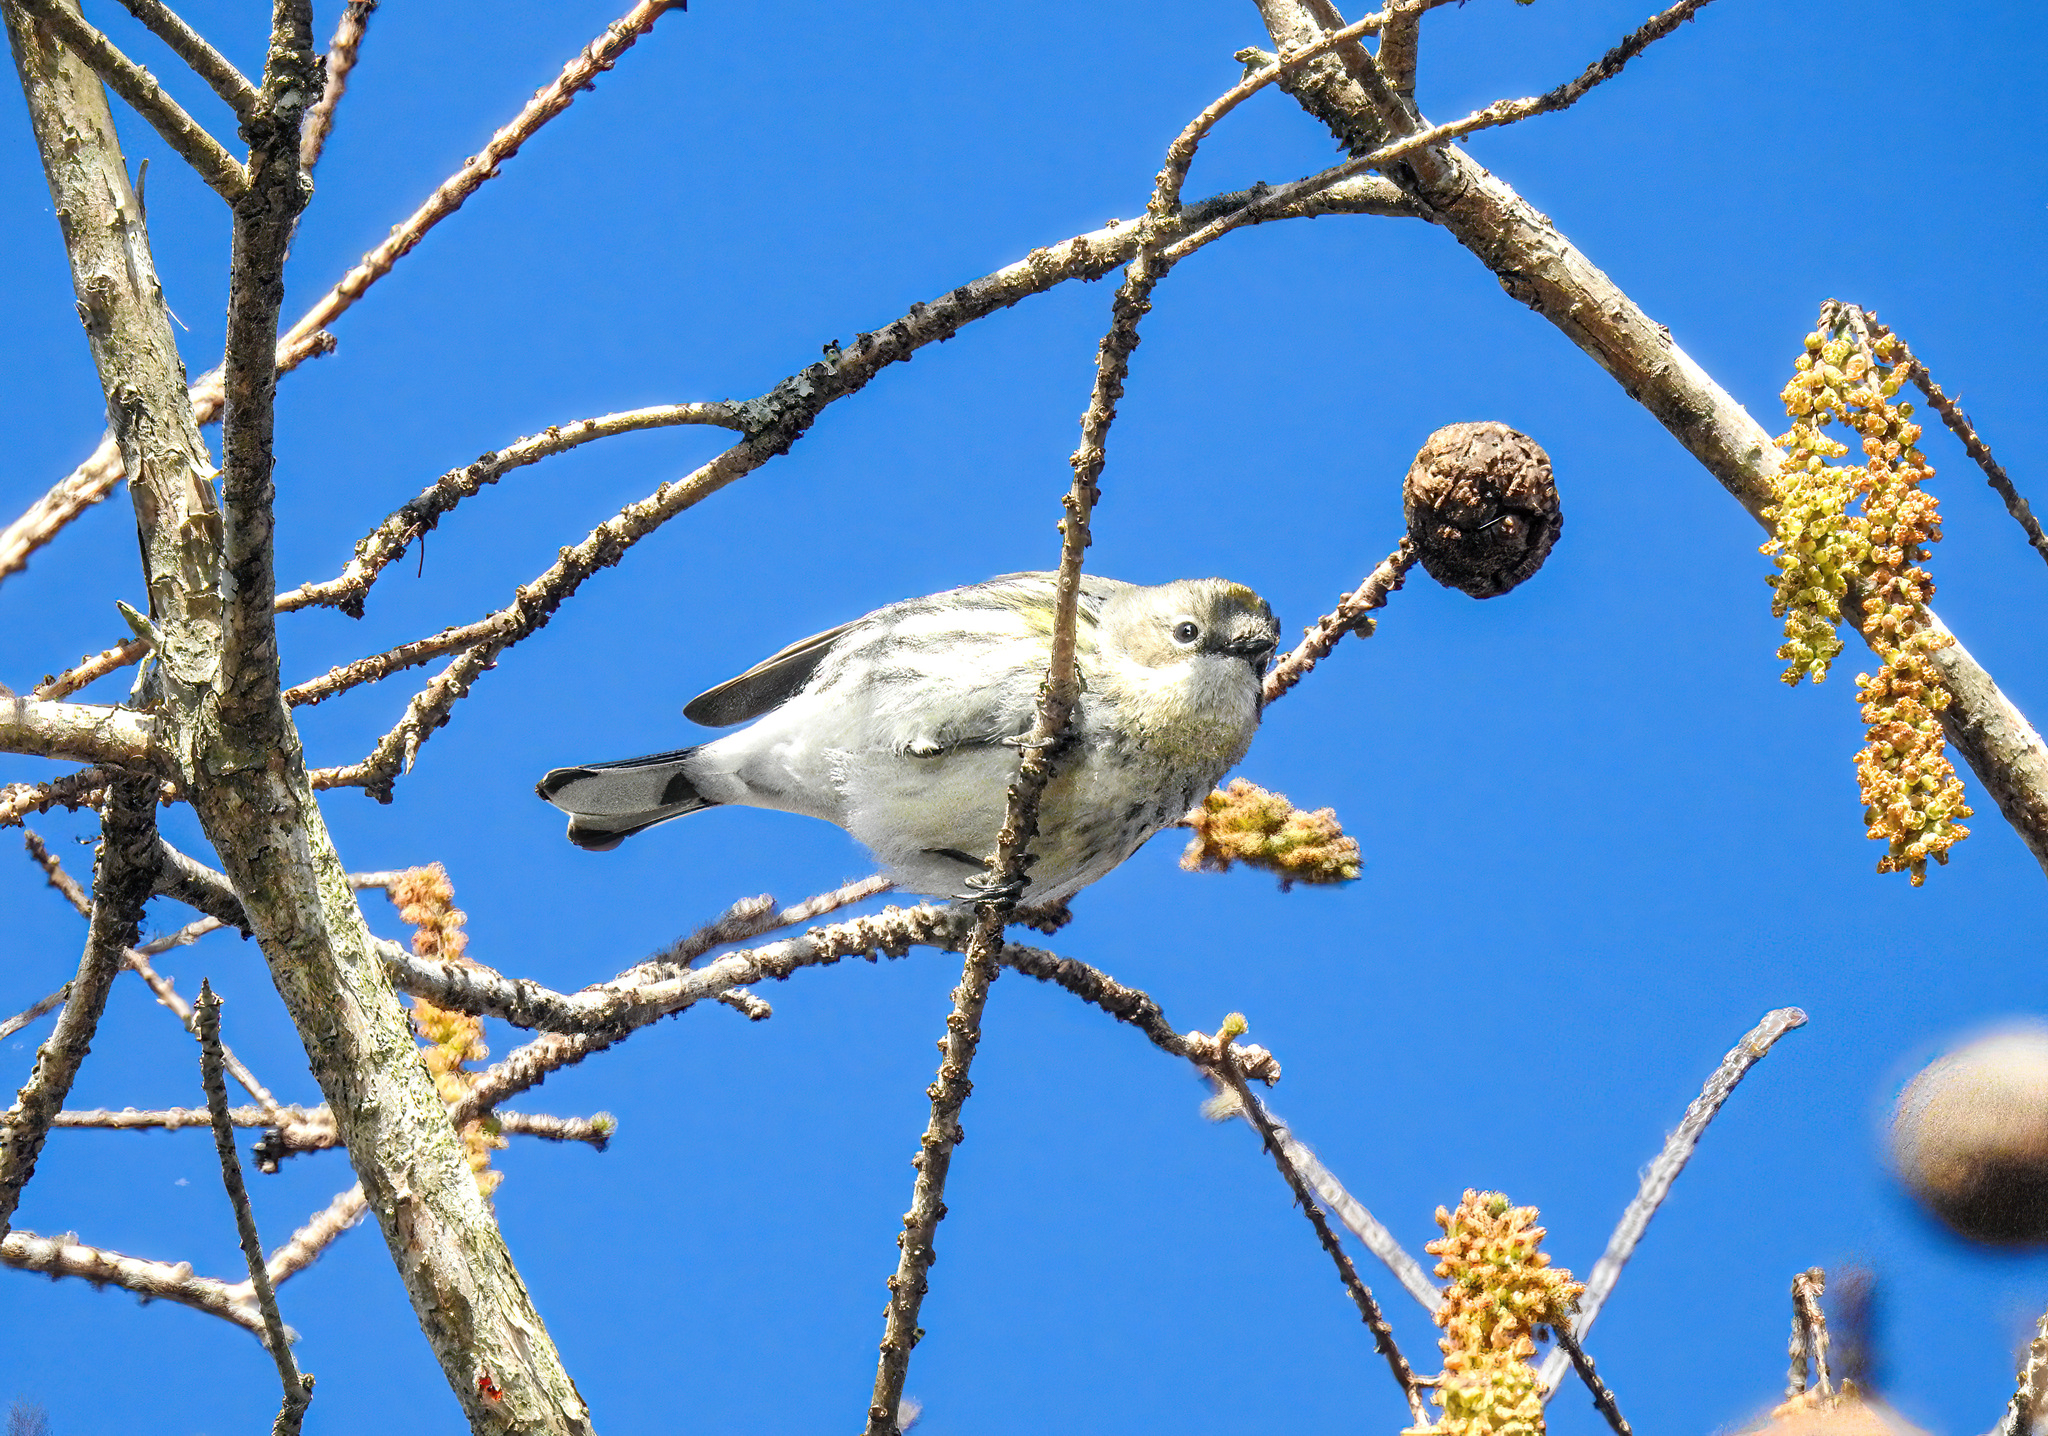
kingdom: Animalia
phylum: Chordata
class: Aves
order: Passeriformes
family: Parulidae
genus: Setophaga
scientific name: Setophaga coronata
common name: Myrtle warbler
